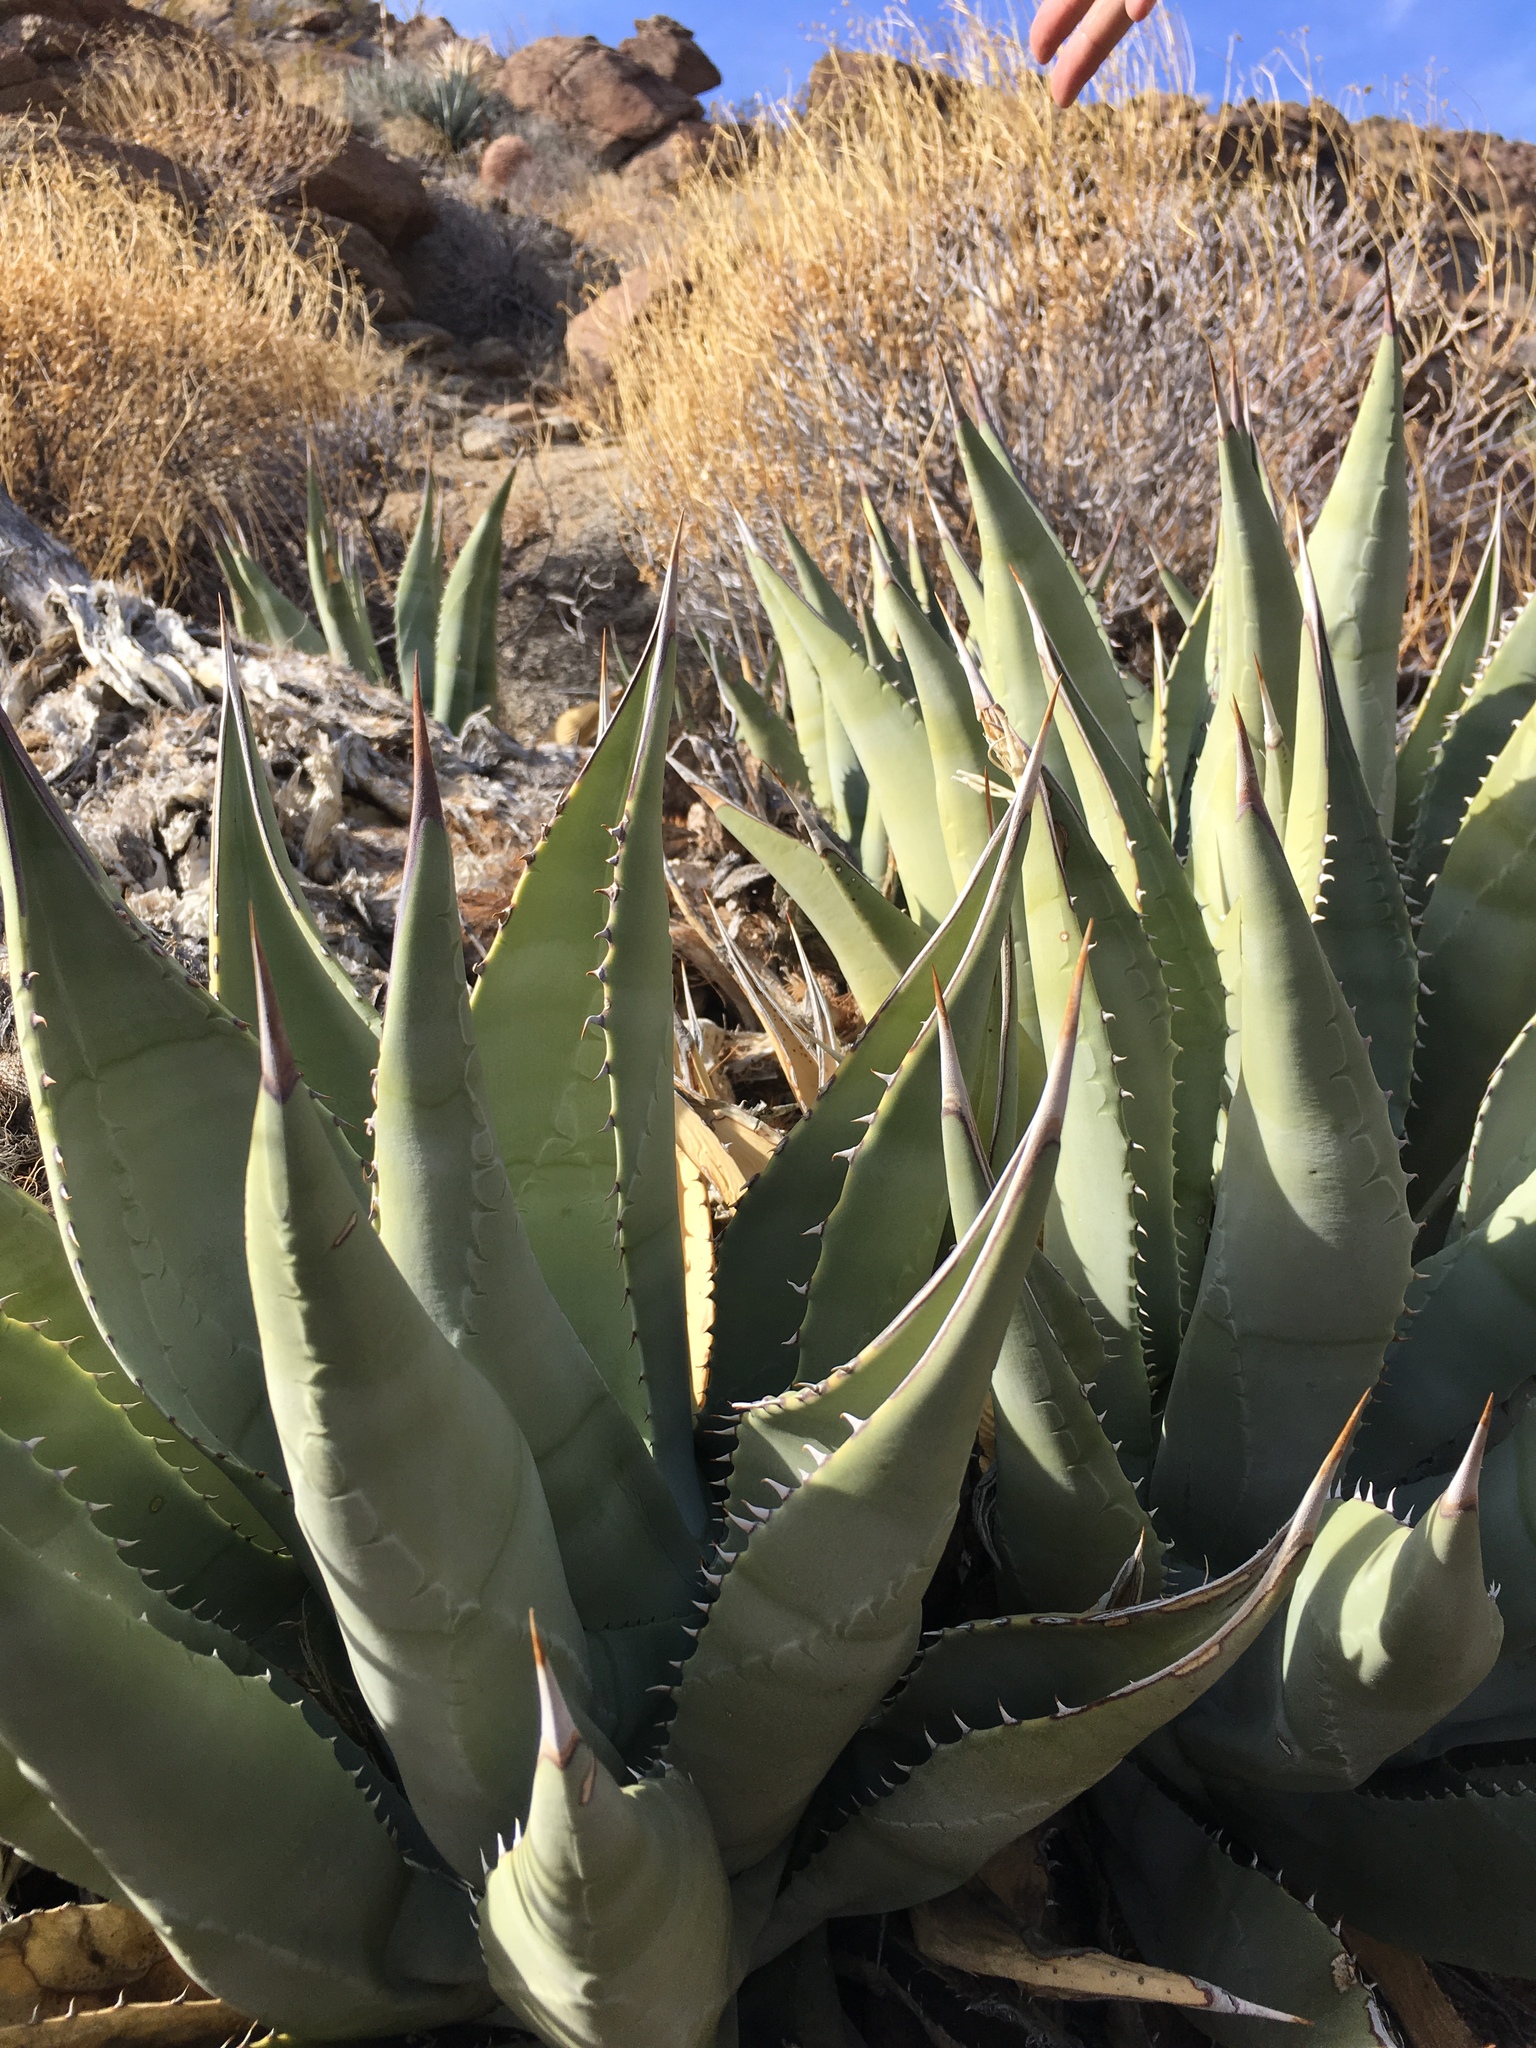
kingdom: Plantae
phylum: Tracheophyta
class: Liliopsida
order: Asparagales
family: Asparagaceae
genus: Agave
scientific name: Agave deserti
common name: Desert agave
